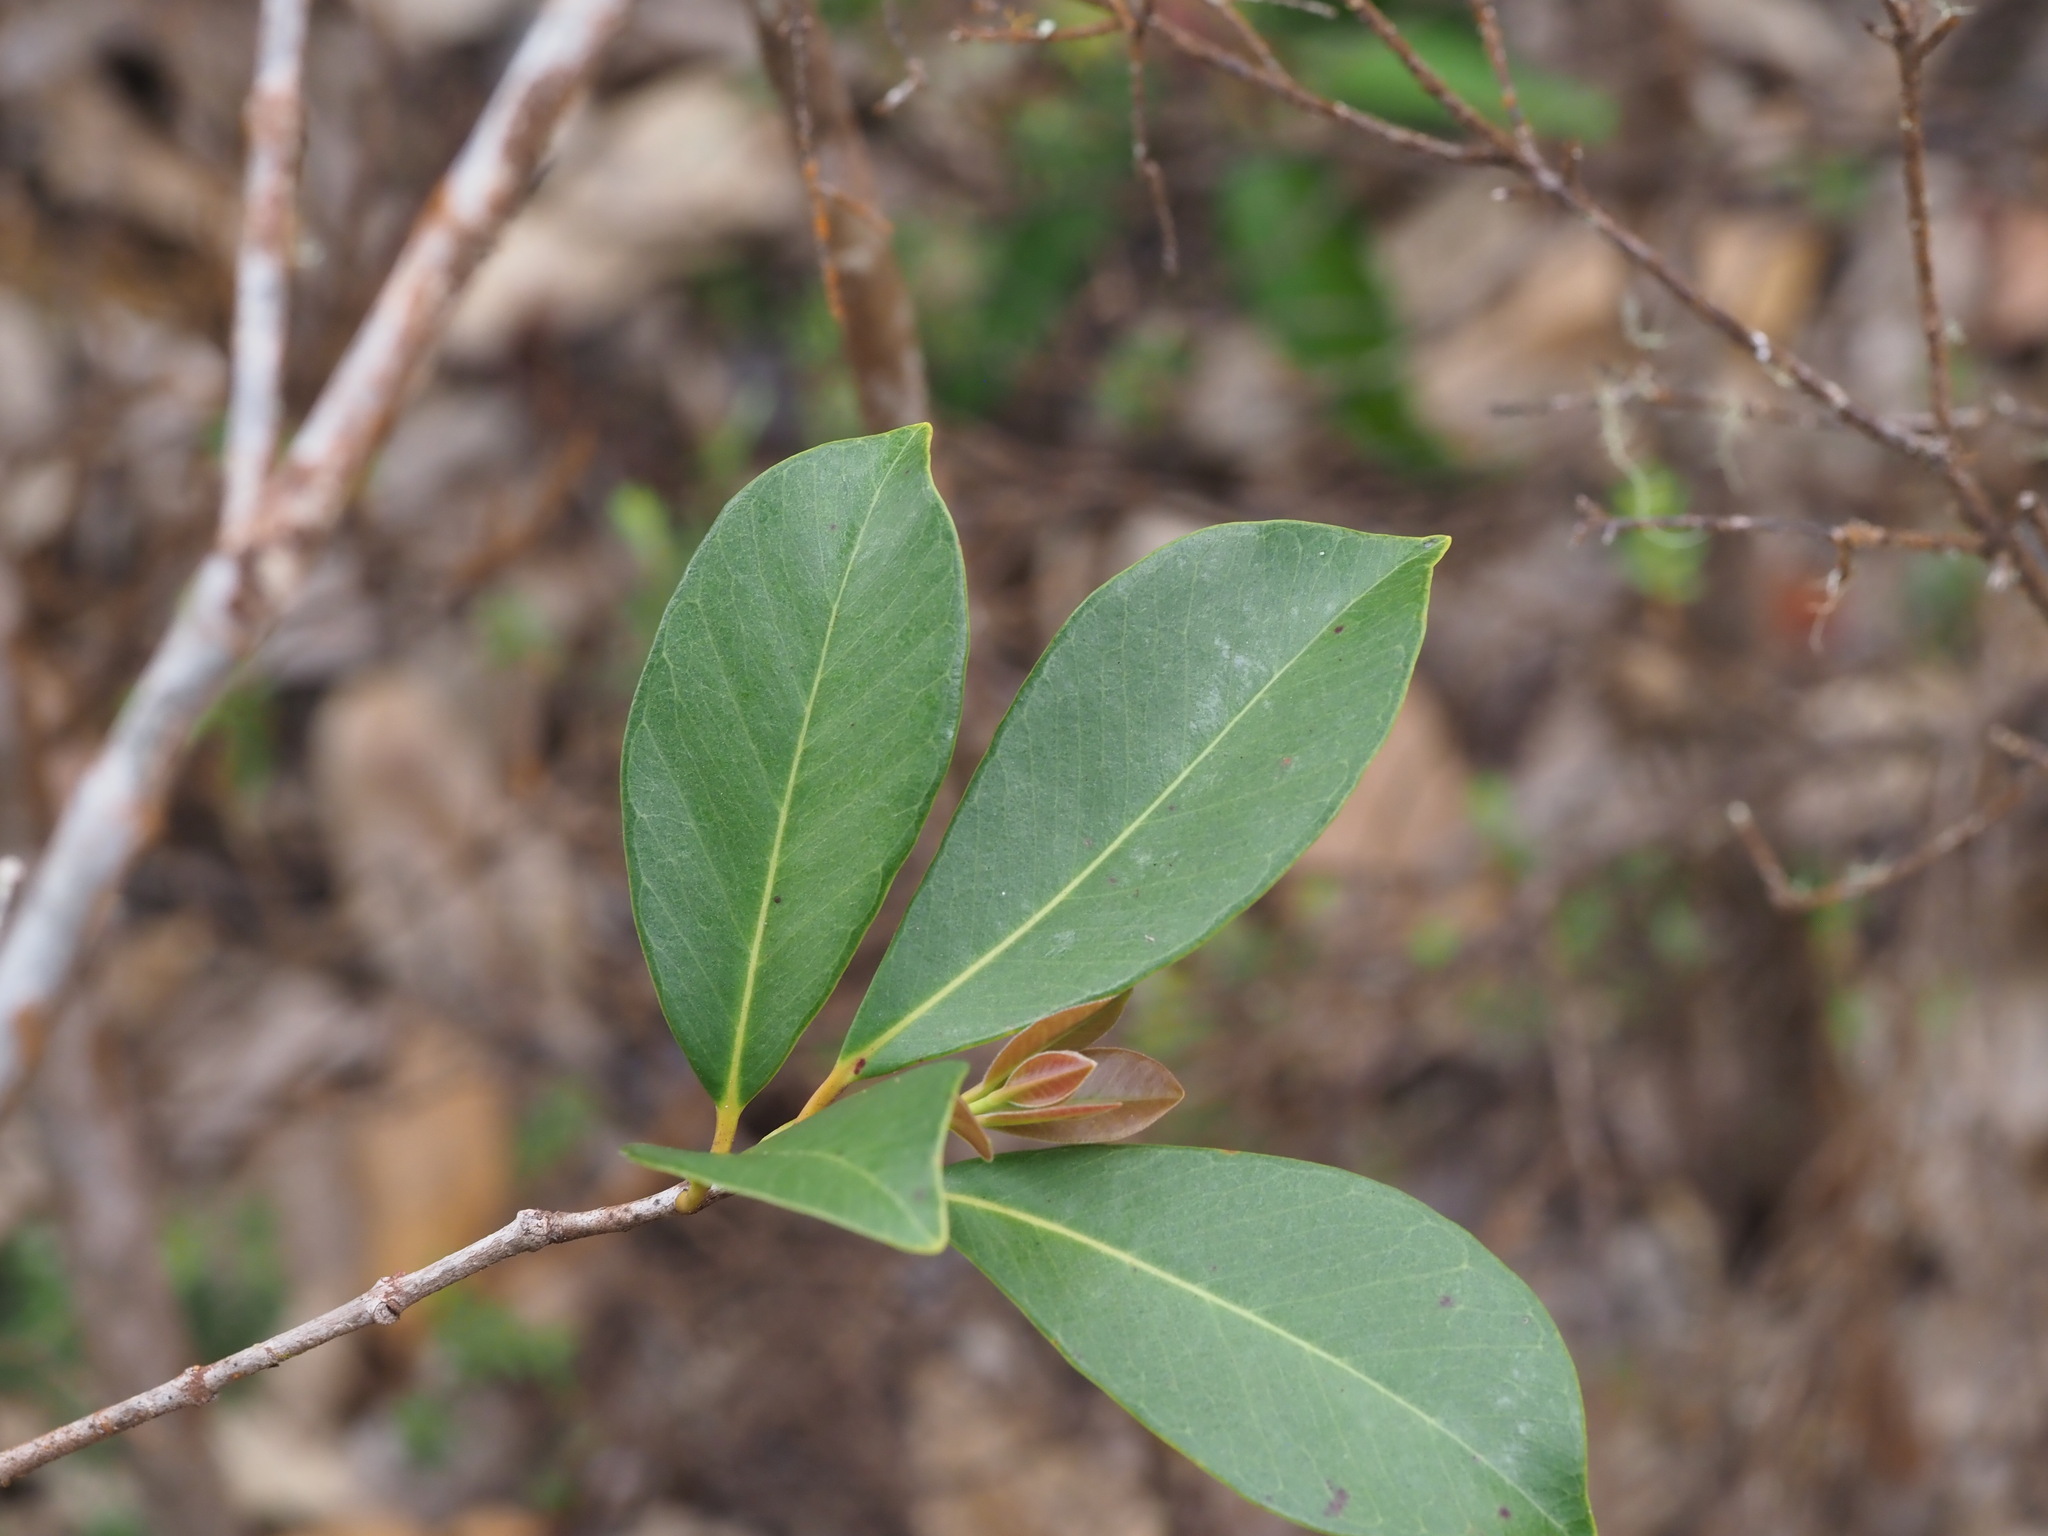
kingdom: Plantae
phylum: Tracheophyta
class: Magnoliopsida
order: Myrtales
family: Myrtaceae
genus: Psidium
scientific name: Psidium cattleianum
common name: Strawberry guava
